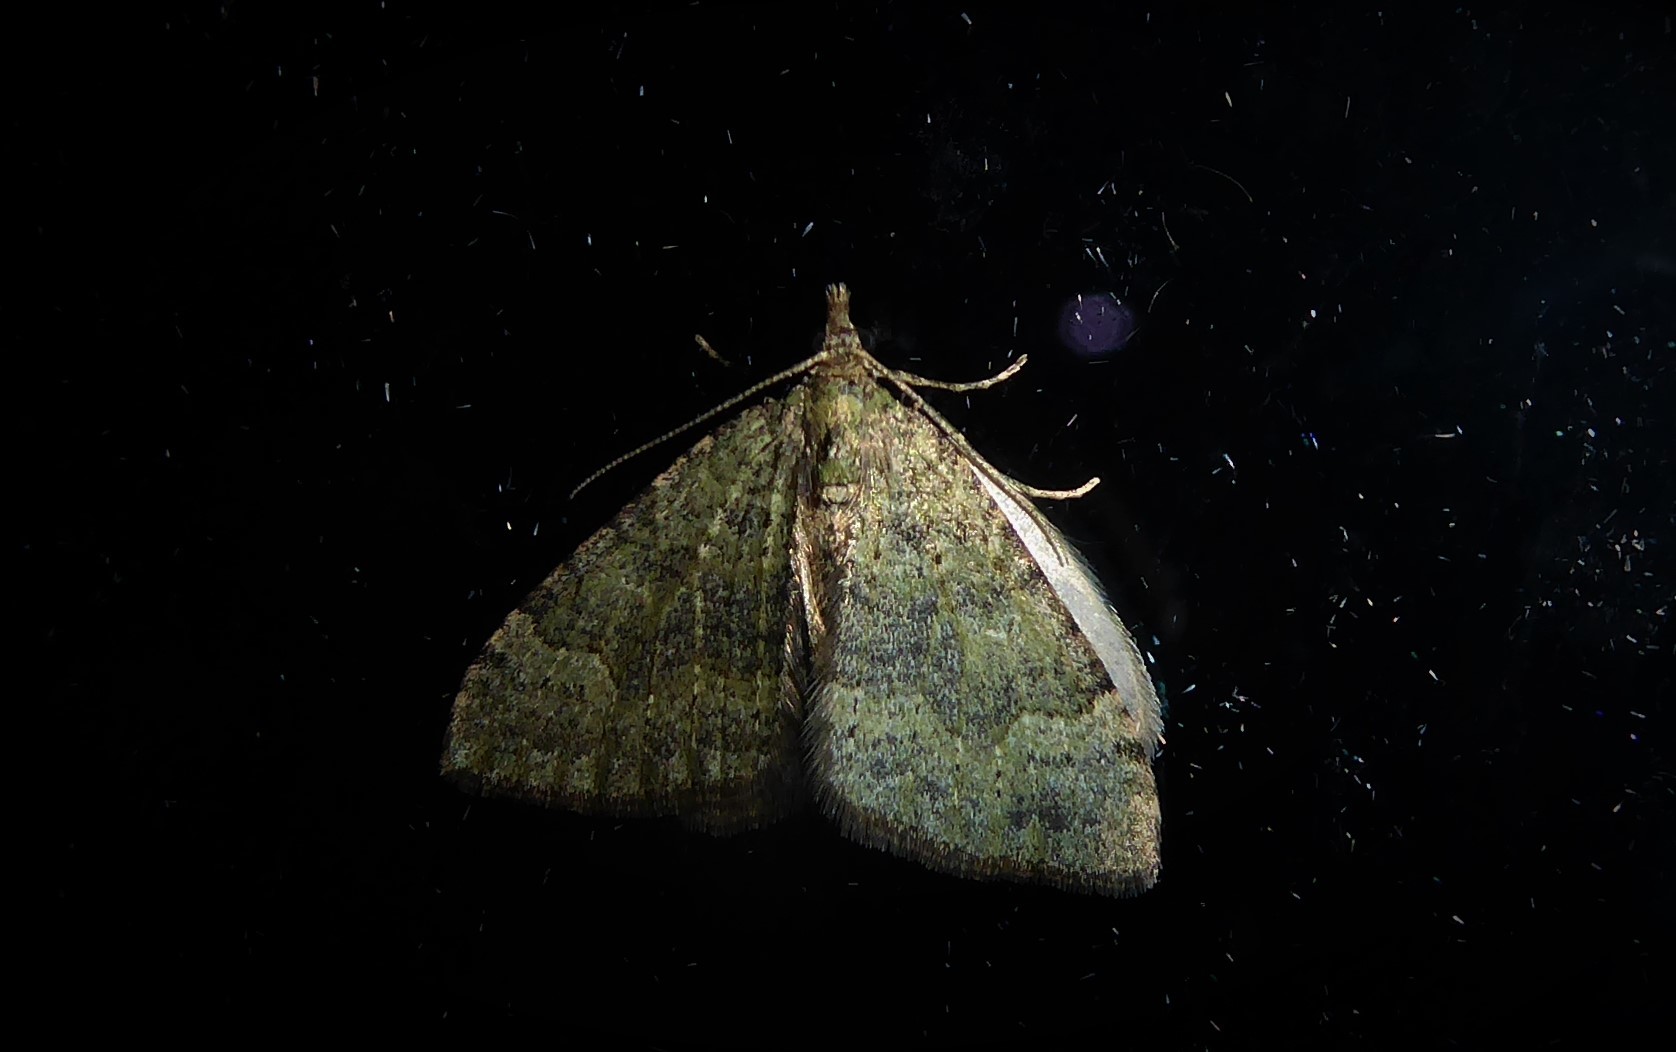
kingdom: Animalia
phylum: Arthropoda
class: Insecta
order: Lepidoptera
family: Geometridae
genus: Epyaxa
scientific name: Epyaxa rosearia
